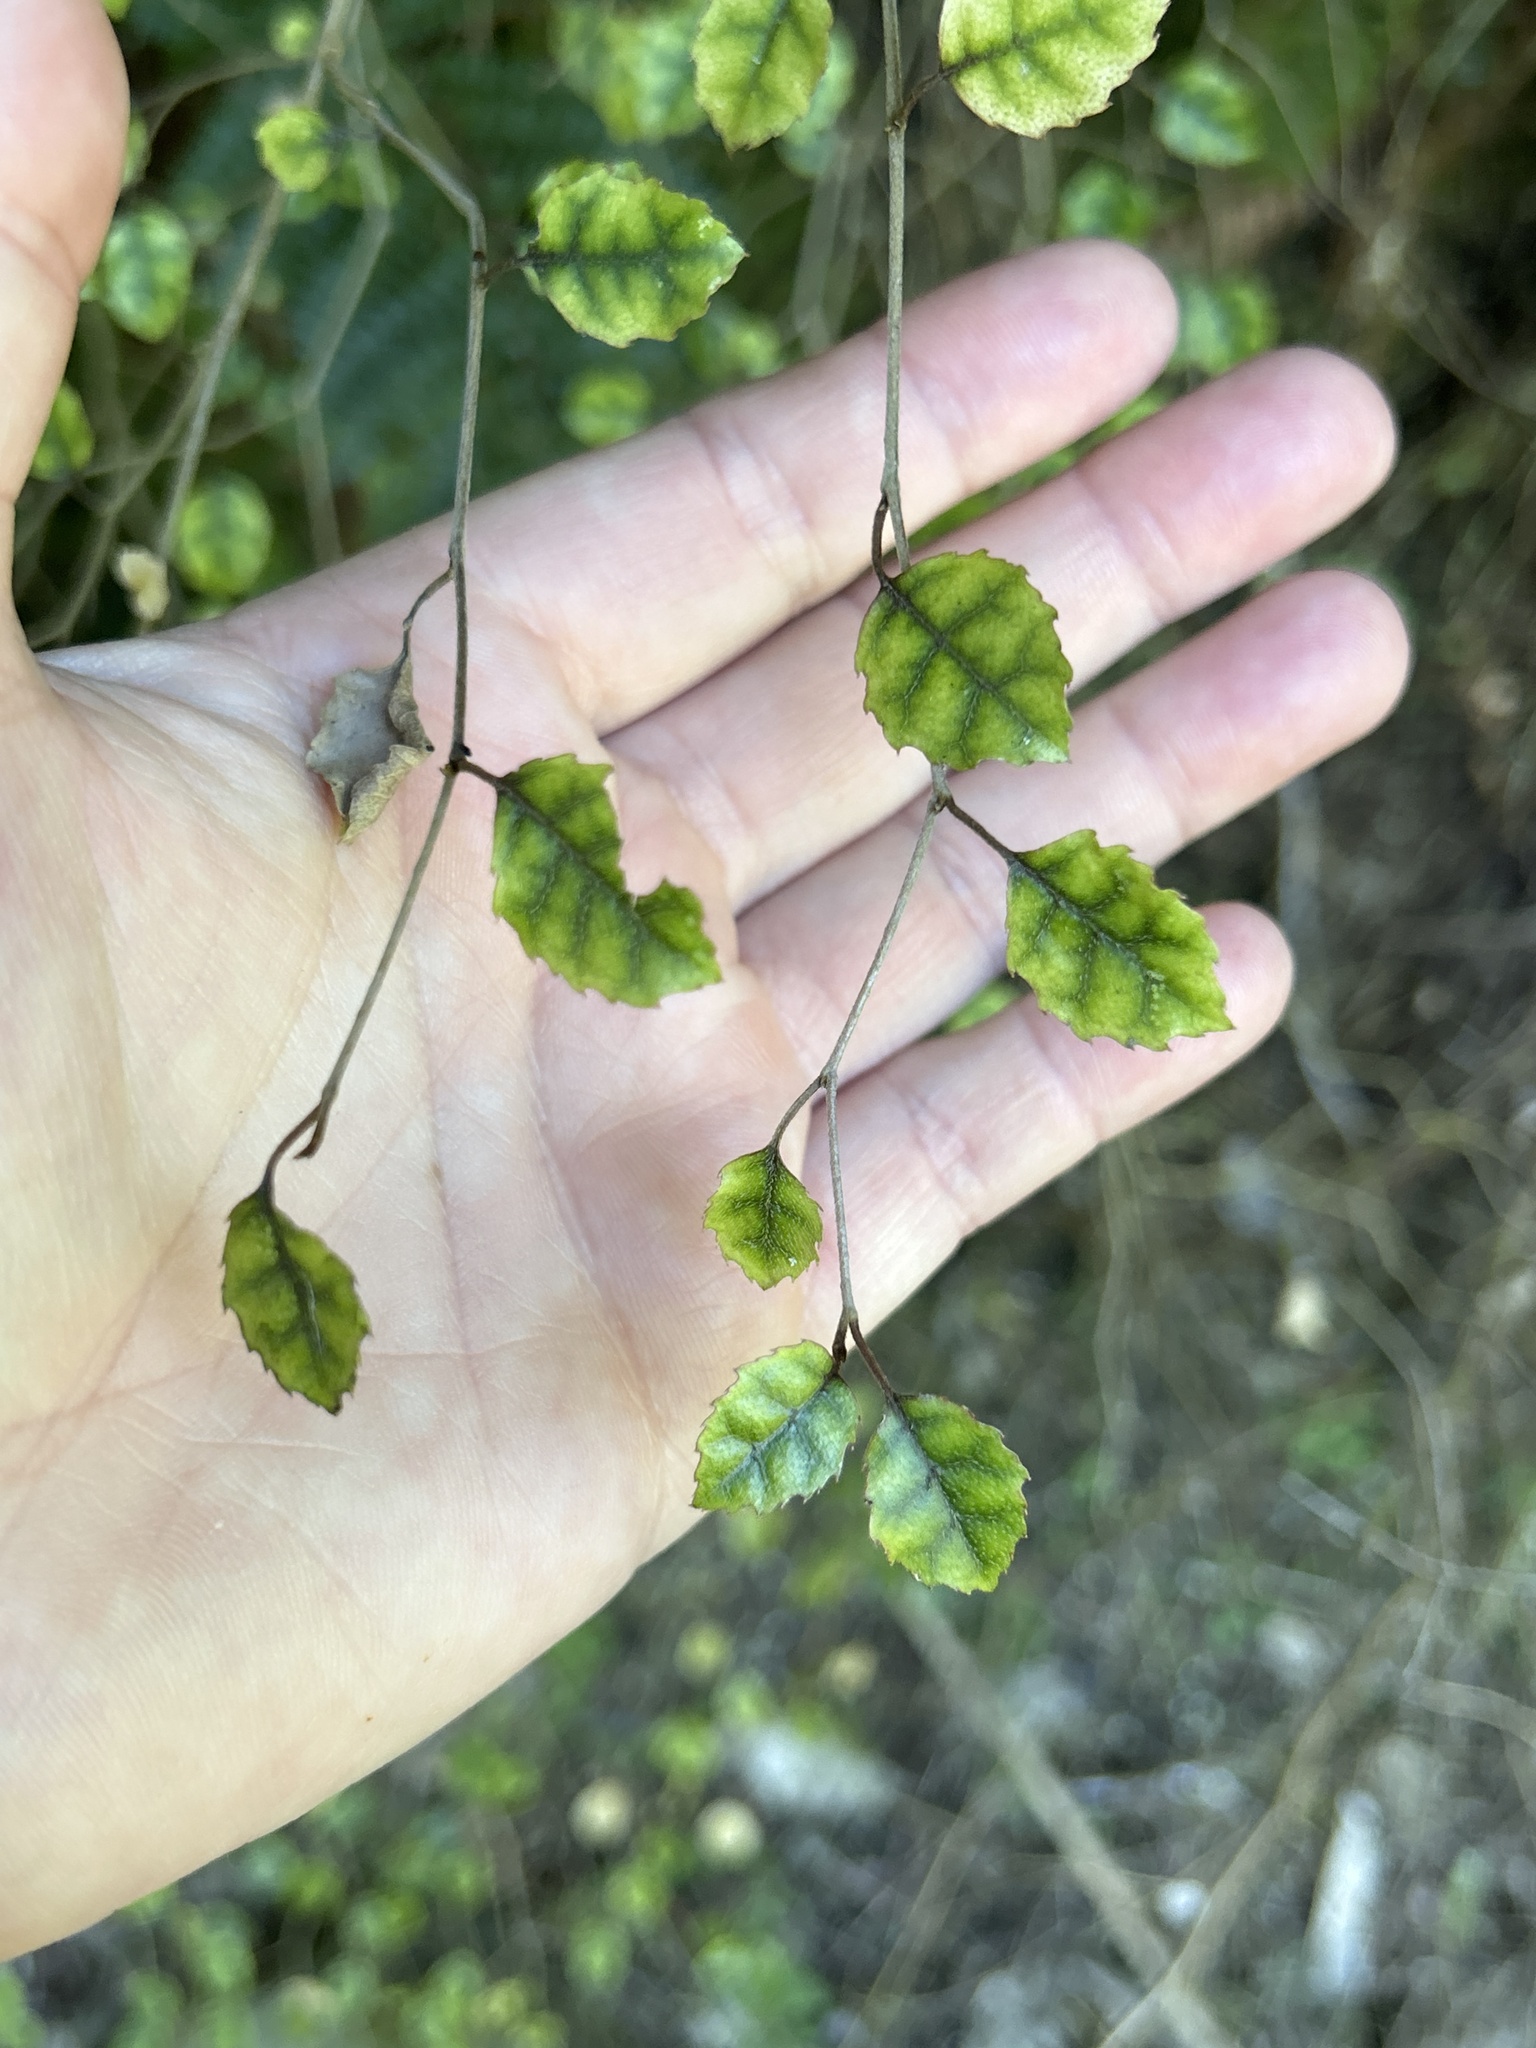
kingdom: Plantae
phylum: Tracheophyta
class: Magnoliopsida
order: Asterales
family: Rousseaceae
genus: Carpodetus
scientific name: Carpodetus serratus
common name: White mapau
